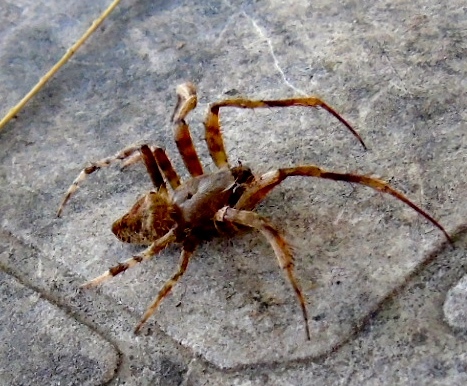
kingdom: Animalia
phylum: Arthropoda
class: Arachnida
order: Araneae
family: Araneidae
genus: Neoscona
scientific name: Neoscona
